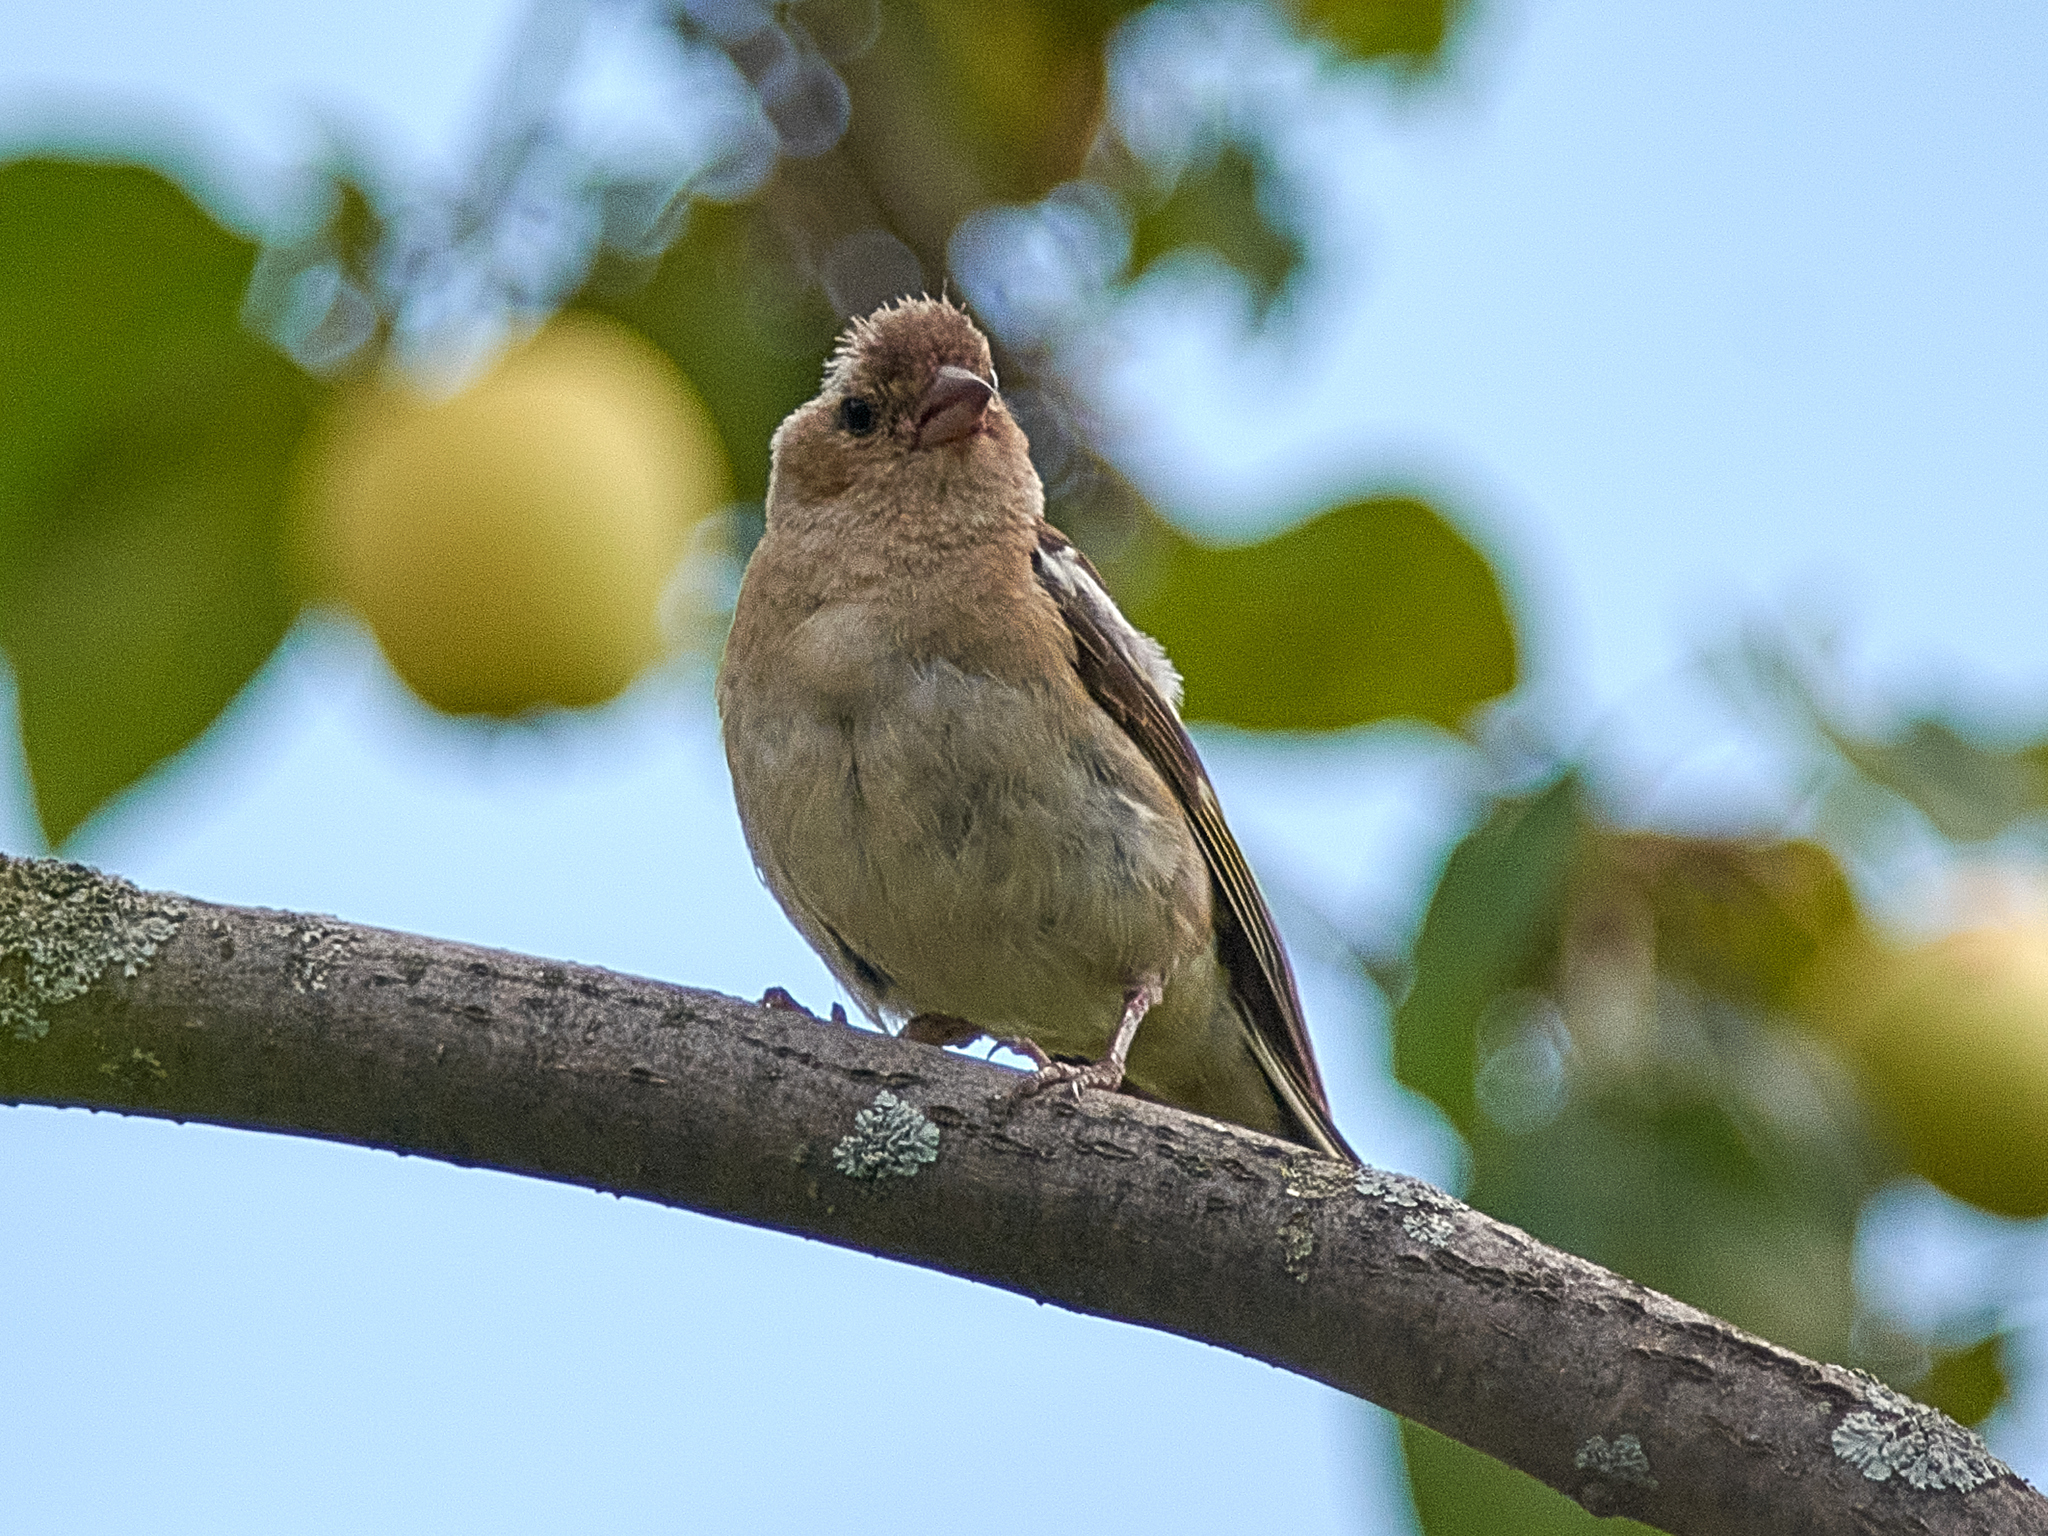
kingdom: Animalia
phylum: Chordata
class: Aves
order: Passeriformes
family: Fringillidae
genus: Fringilla
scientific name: Fringilla coelebs
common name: Common chaffinch
